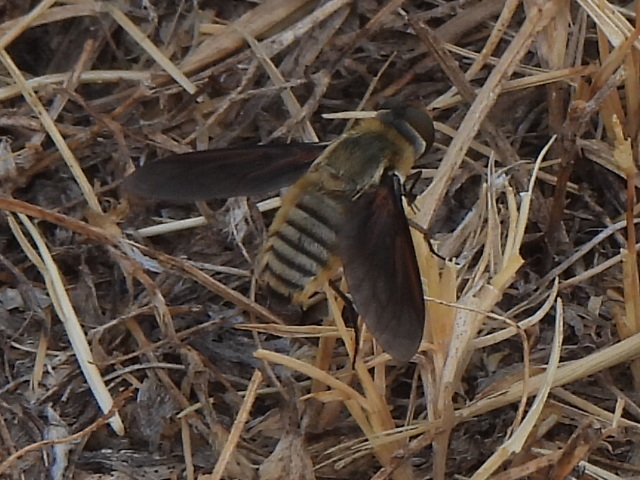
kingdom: Animalia
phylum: Arthropoda
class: Insecta
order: Diptera
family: Bombyliidae
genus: Poecilanthrax
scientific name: Poecilanthrax lucifer
